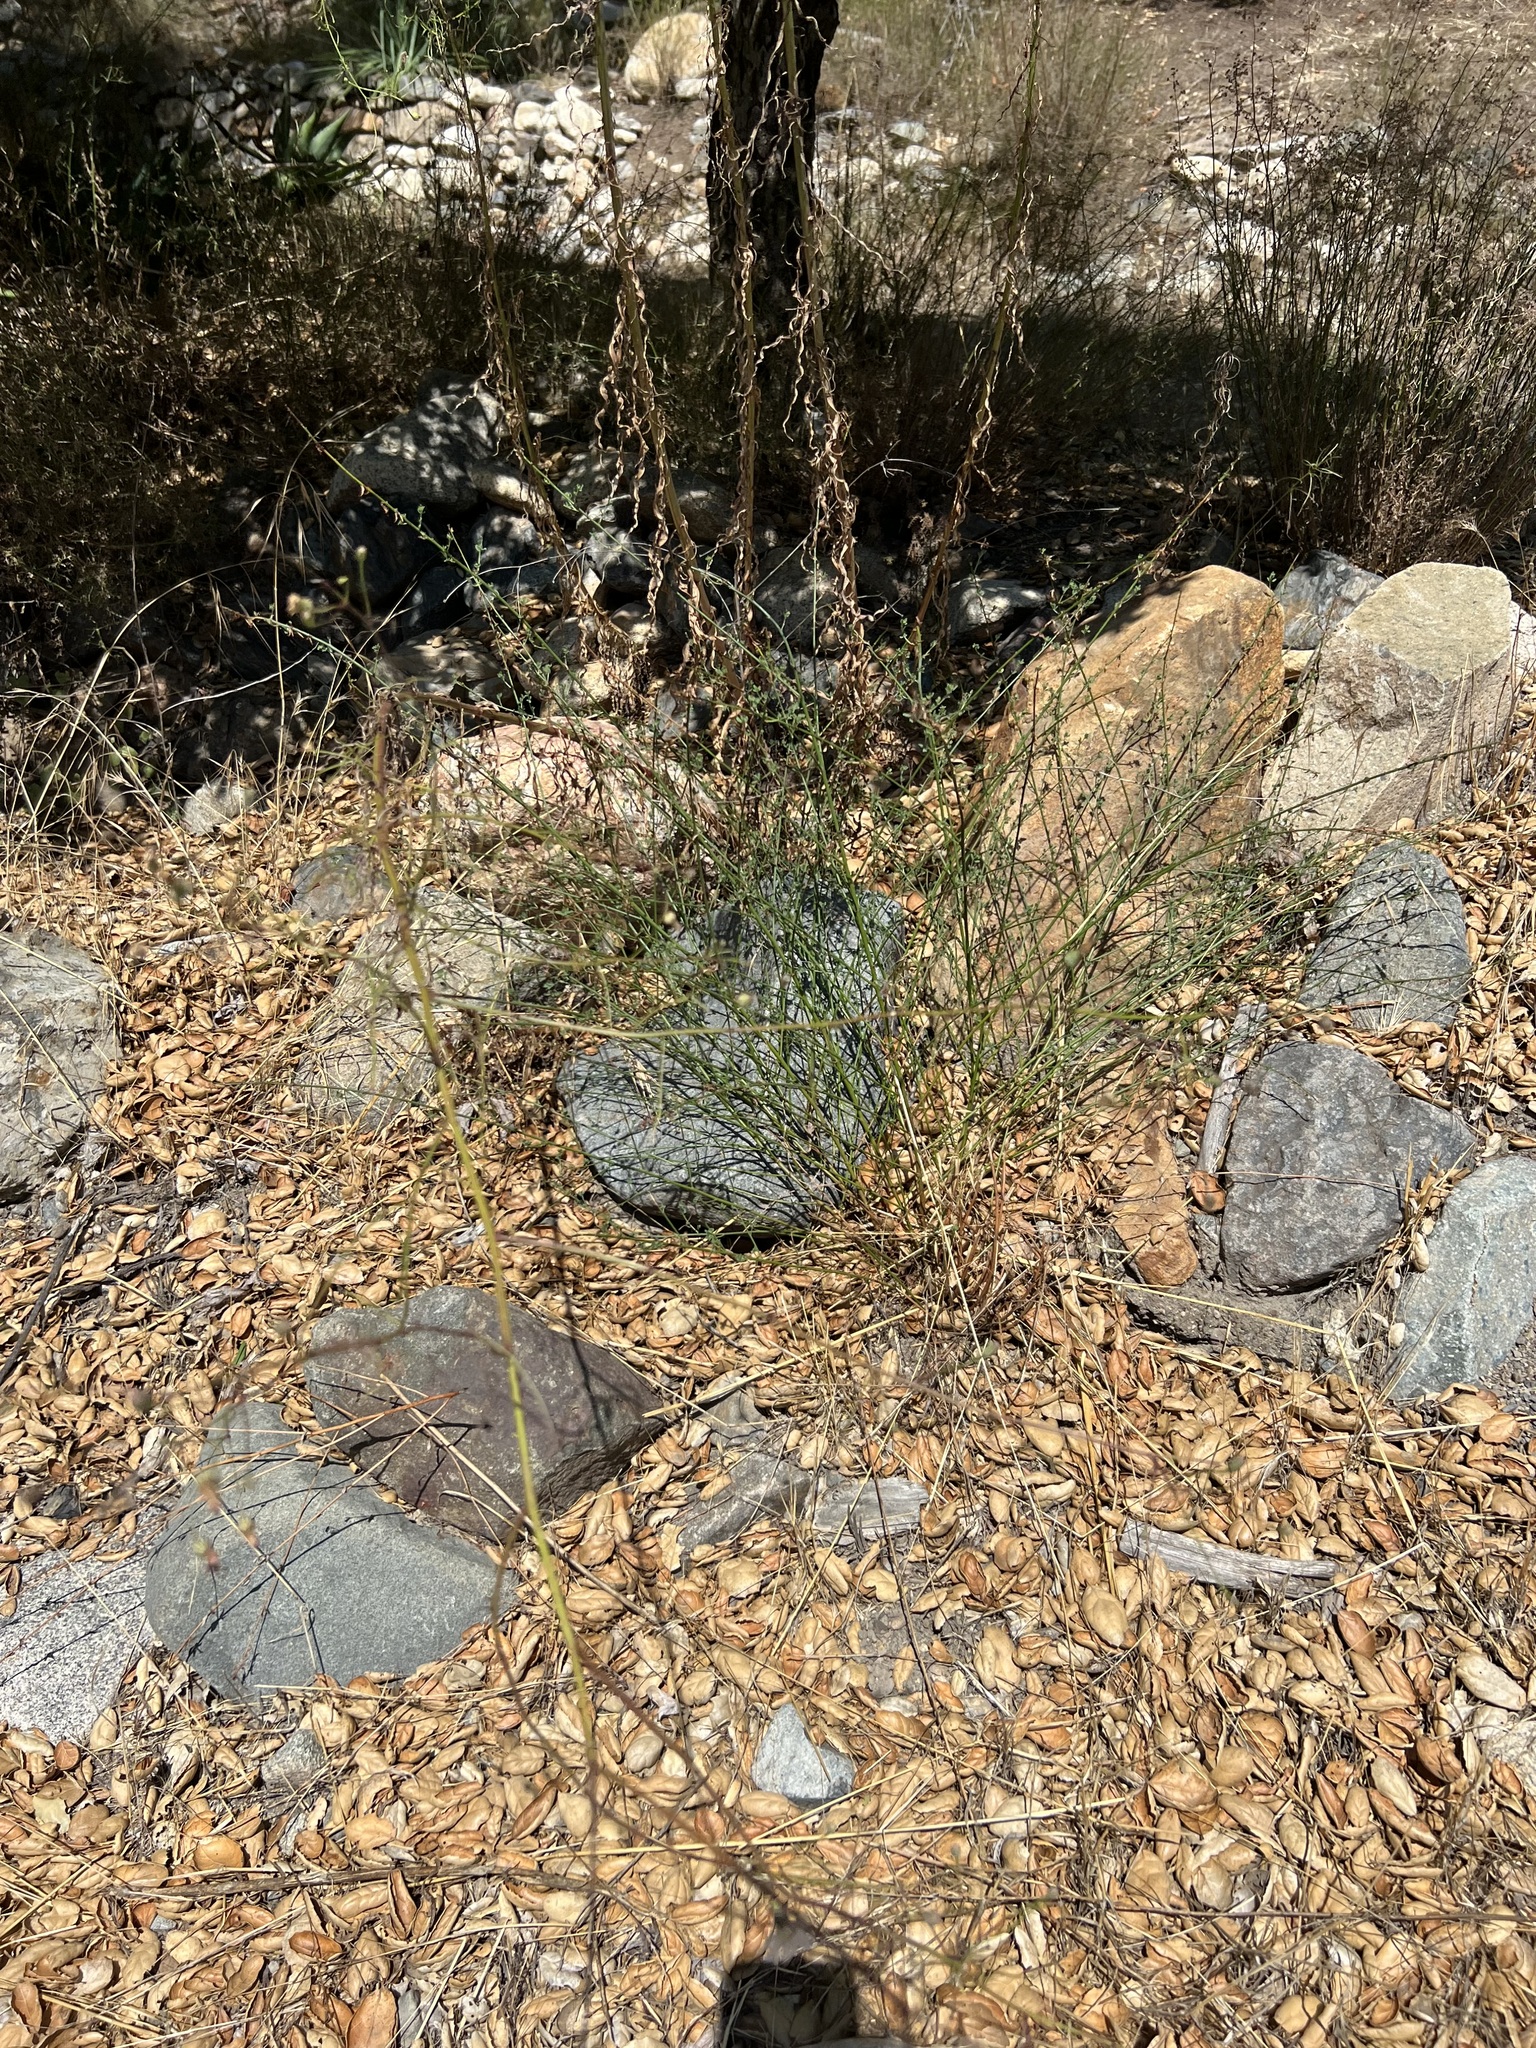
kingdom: Plantae
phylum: Tracheophyta
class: Magnoliopsida
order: Asterales
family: Asteraceae
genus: Malacothrix
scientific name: Malacothrix saxatilis
